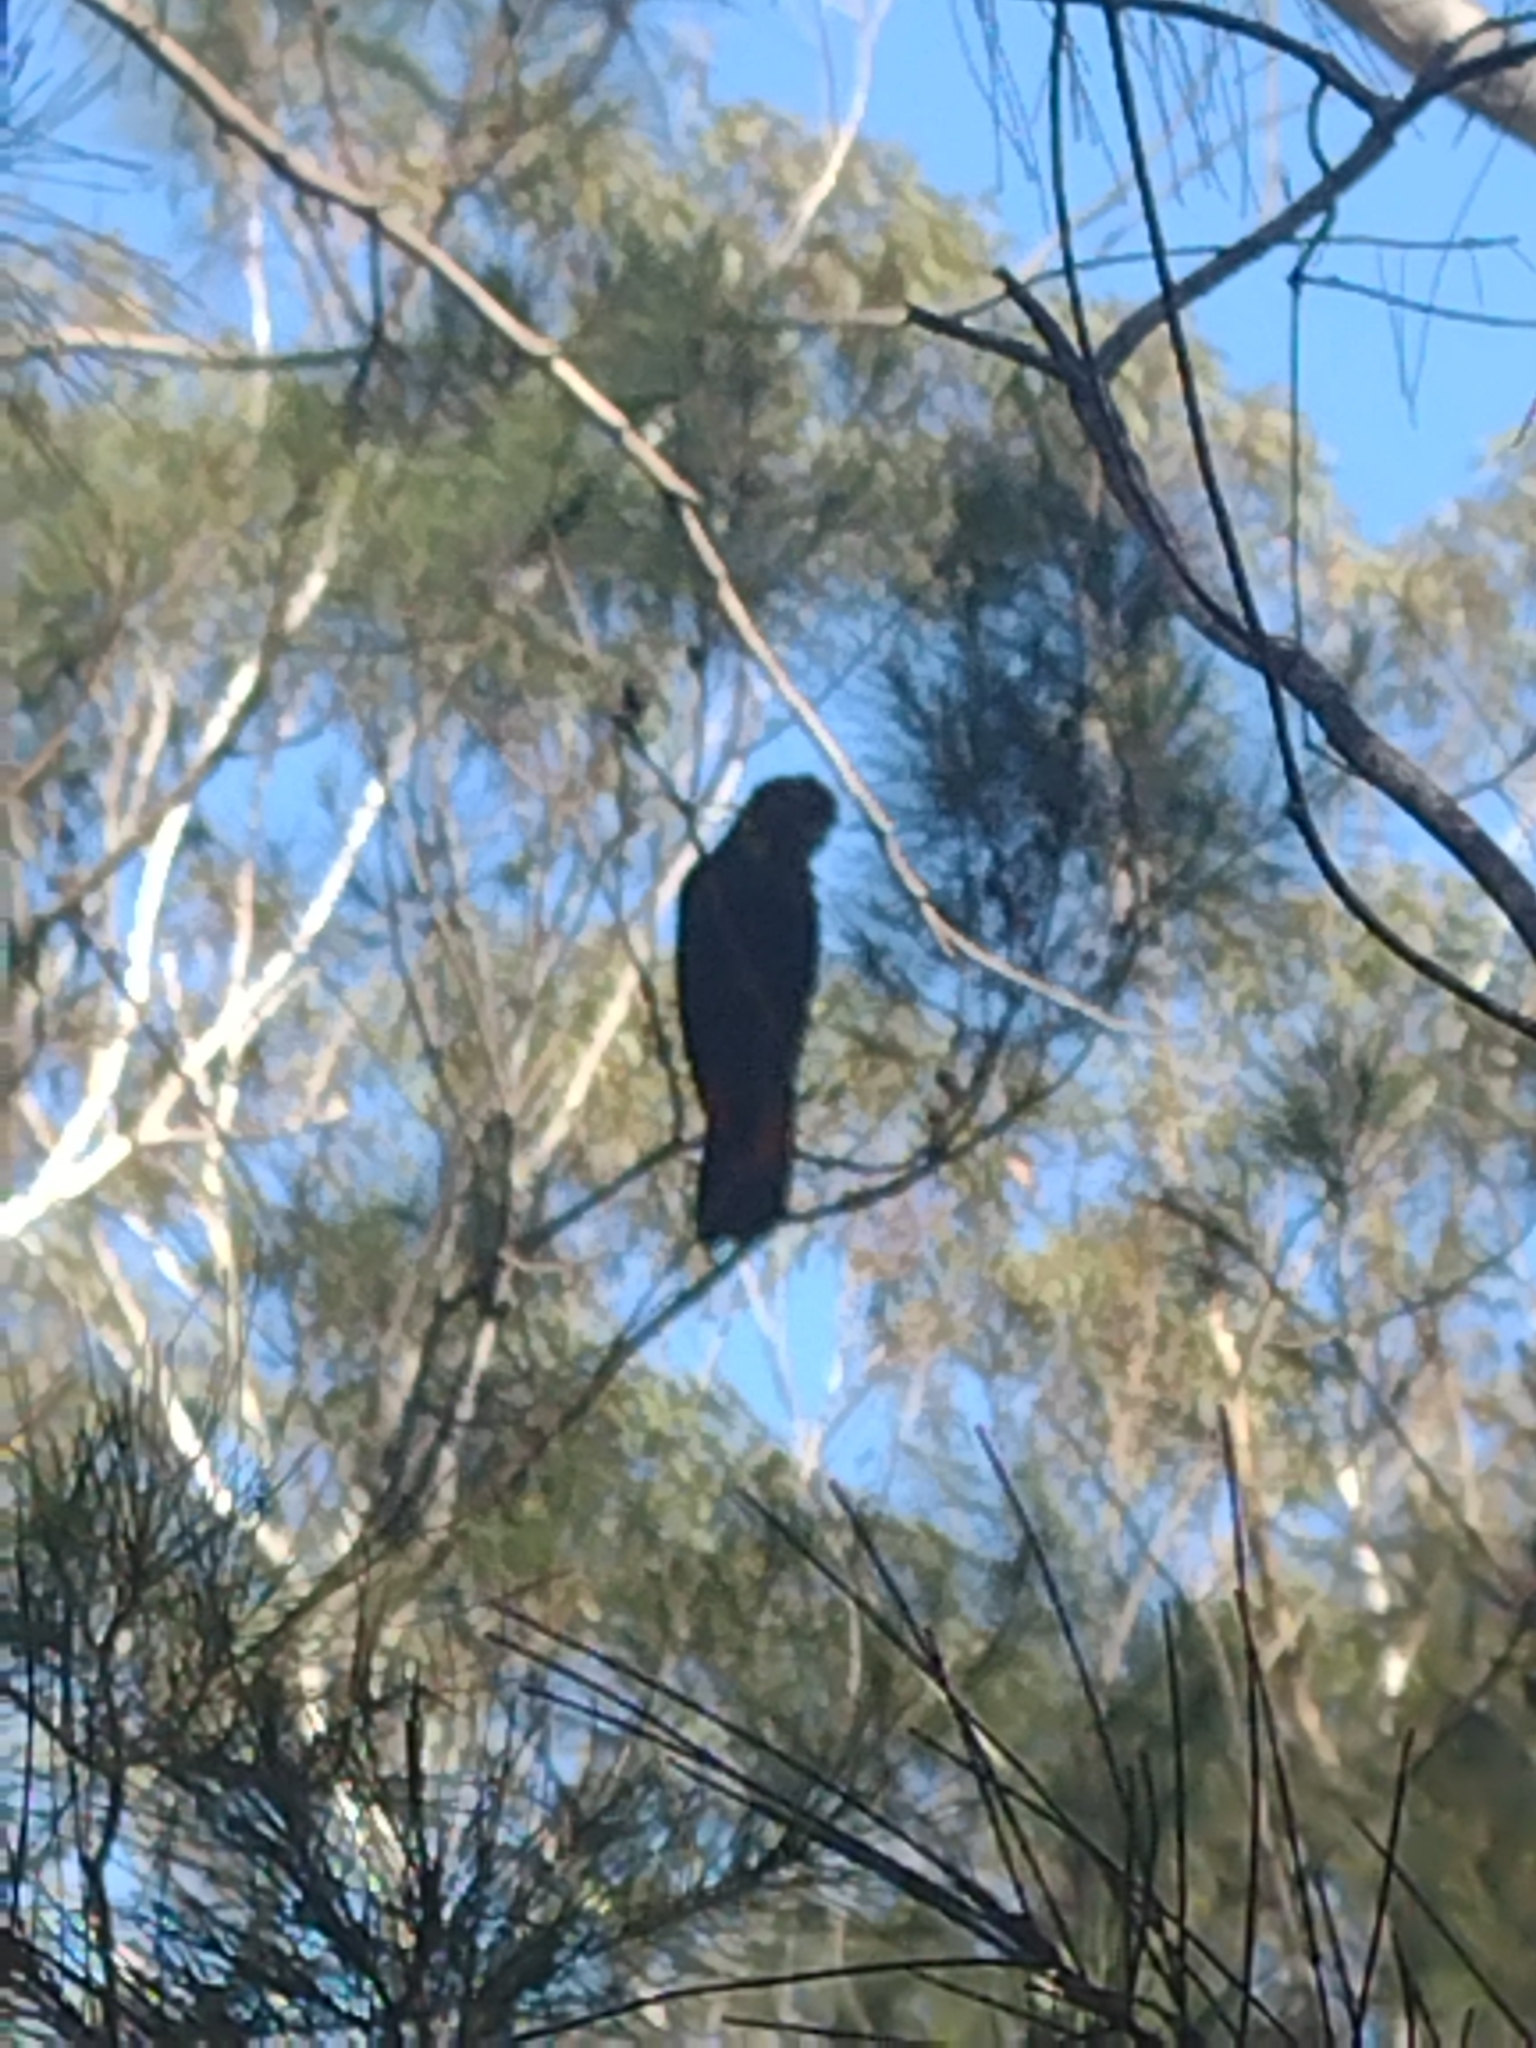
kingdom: Animalia
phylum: Chordata
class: Aves
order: Psittaciformes
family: Psittacidae
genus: Calyptorhynchus
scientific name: Calyptorhynchus lathami
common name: Glossy black cockatoo
